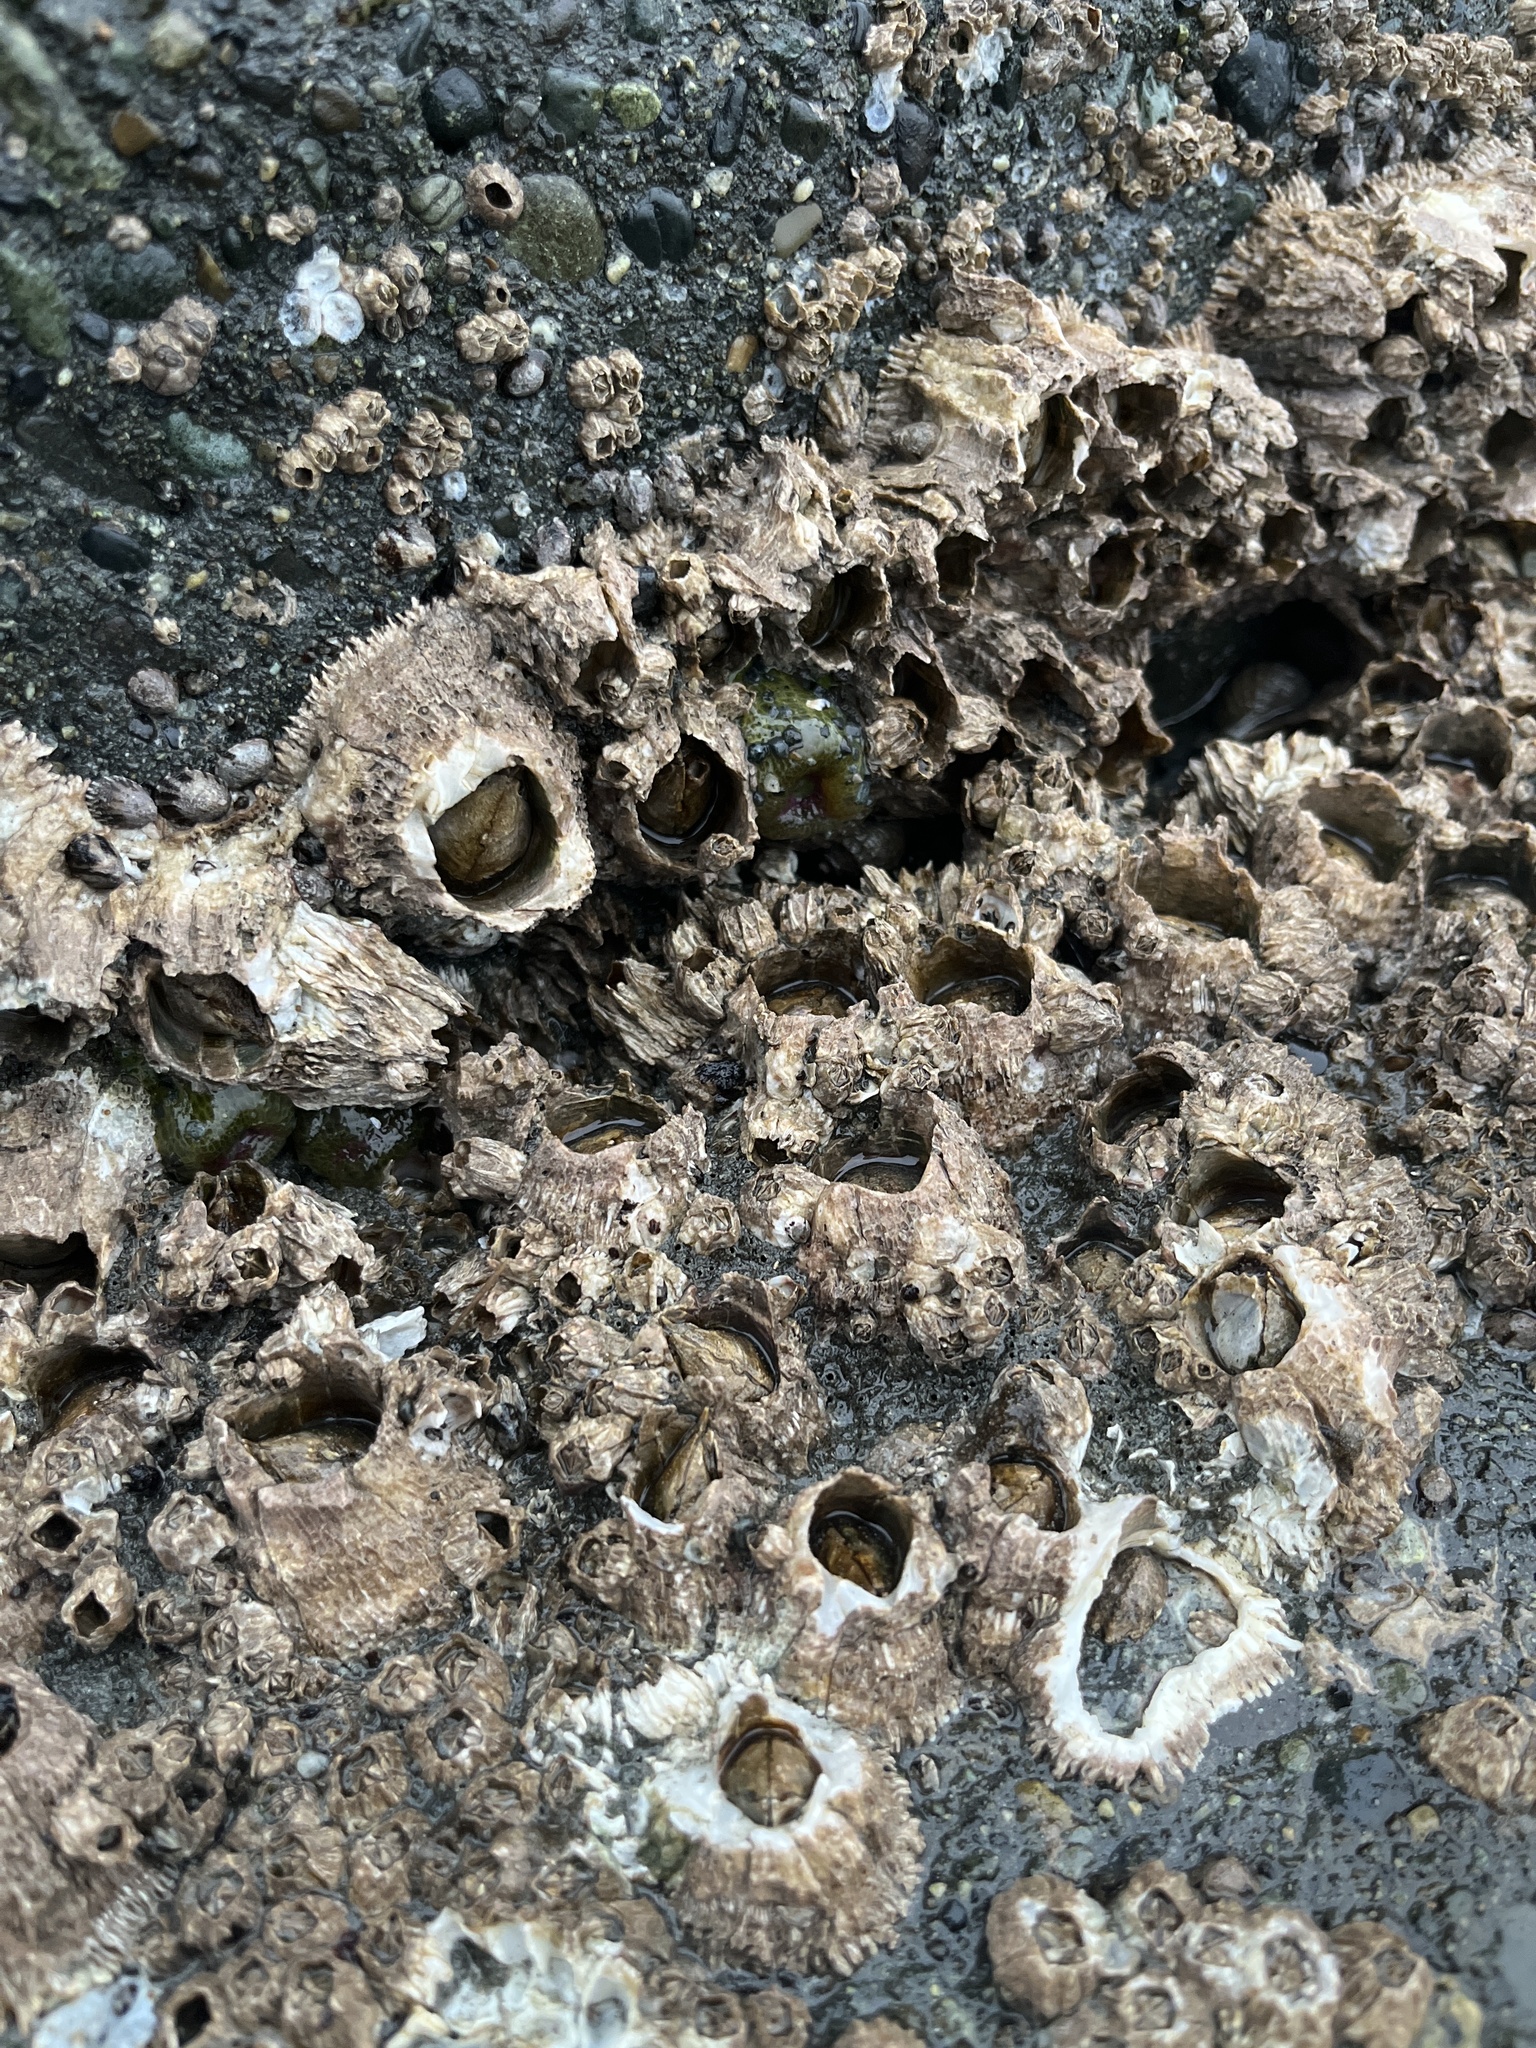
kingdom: Animalia
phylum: Arthropoda
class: Maxillopoda
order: Sessilia
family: Archaeobalanidae
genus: Semibalanus
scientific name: Semibalanus cariosus
